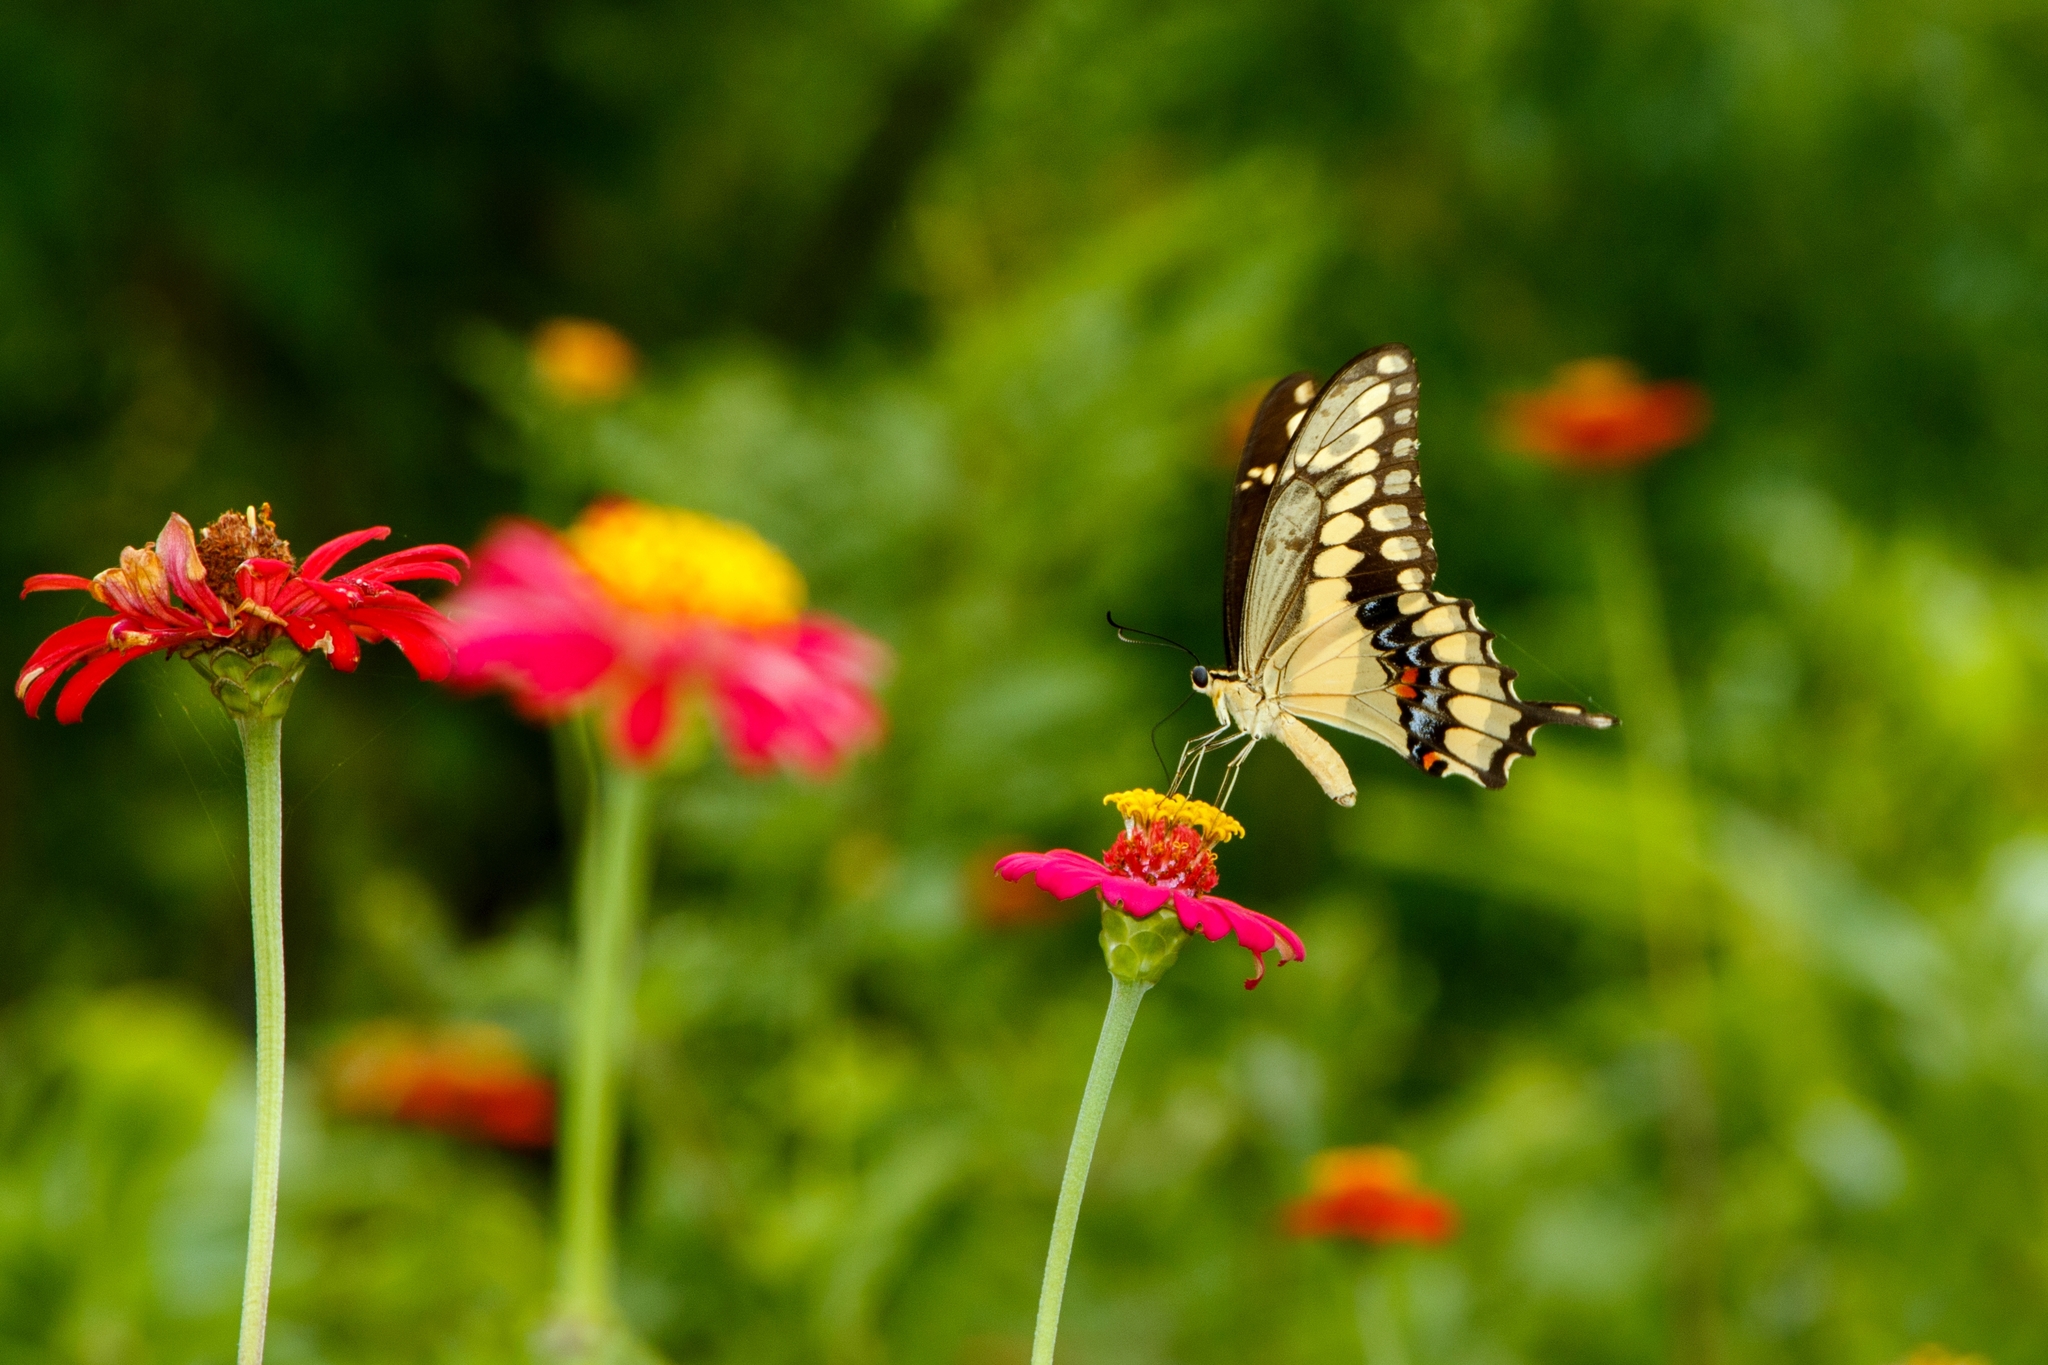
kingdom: Animalia
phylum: Arthropoda
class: Insecta
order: Lepidoptera
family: Papilionidae
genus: Papilio
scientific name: Papilio rumiko
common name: Western giant swallowtail
